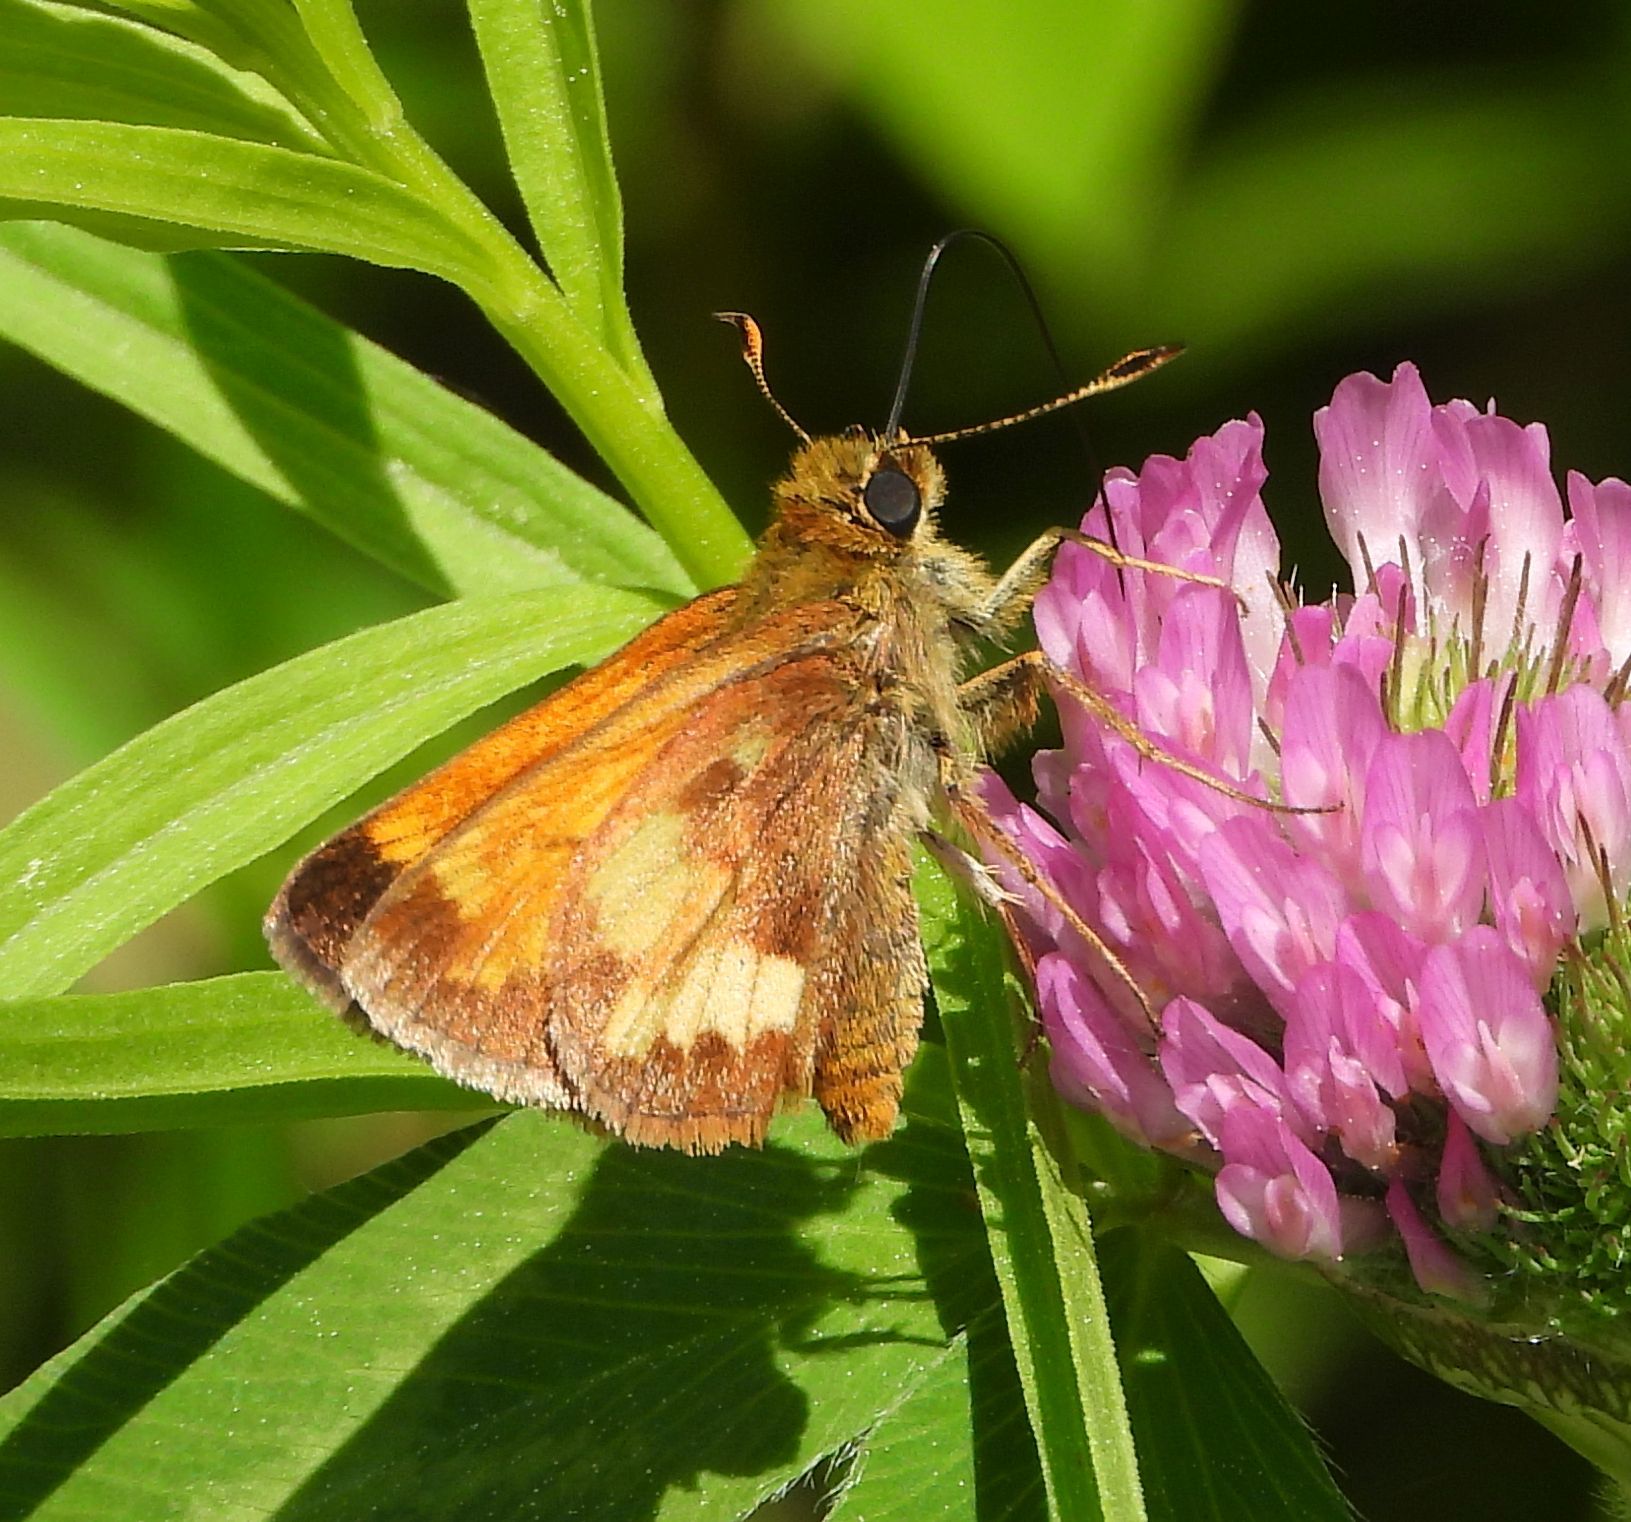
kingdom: Animalia
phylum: Arthropoda
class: Insecta
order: Lepidoptera
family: Hesperiidae
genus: Lon
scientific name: Lon hobomok
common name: Hobomok skipper
